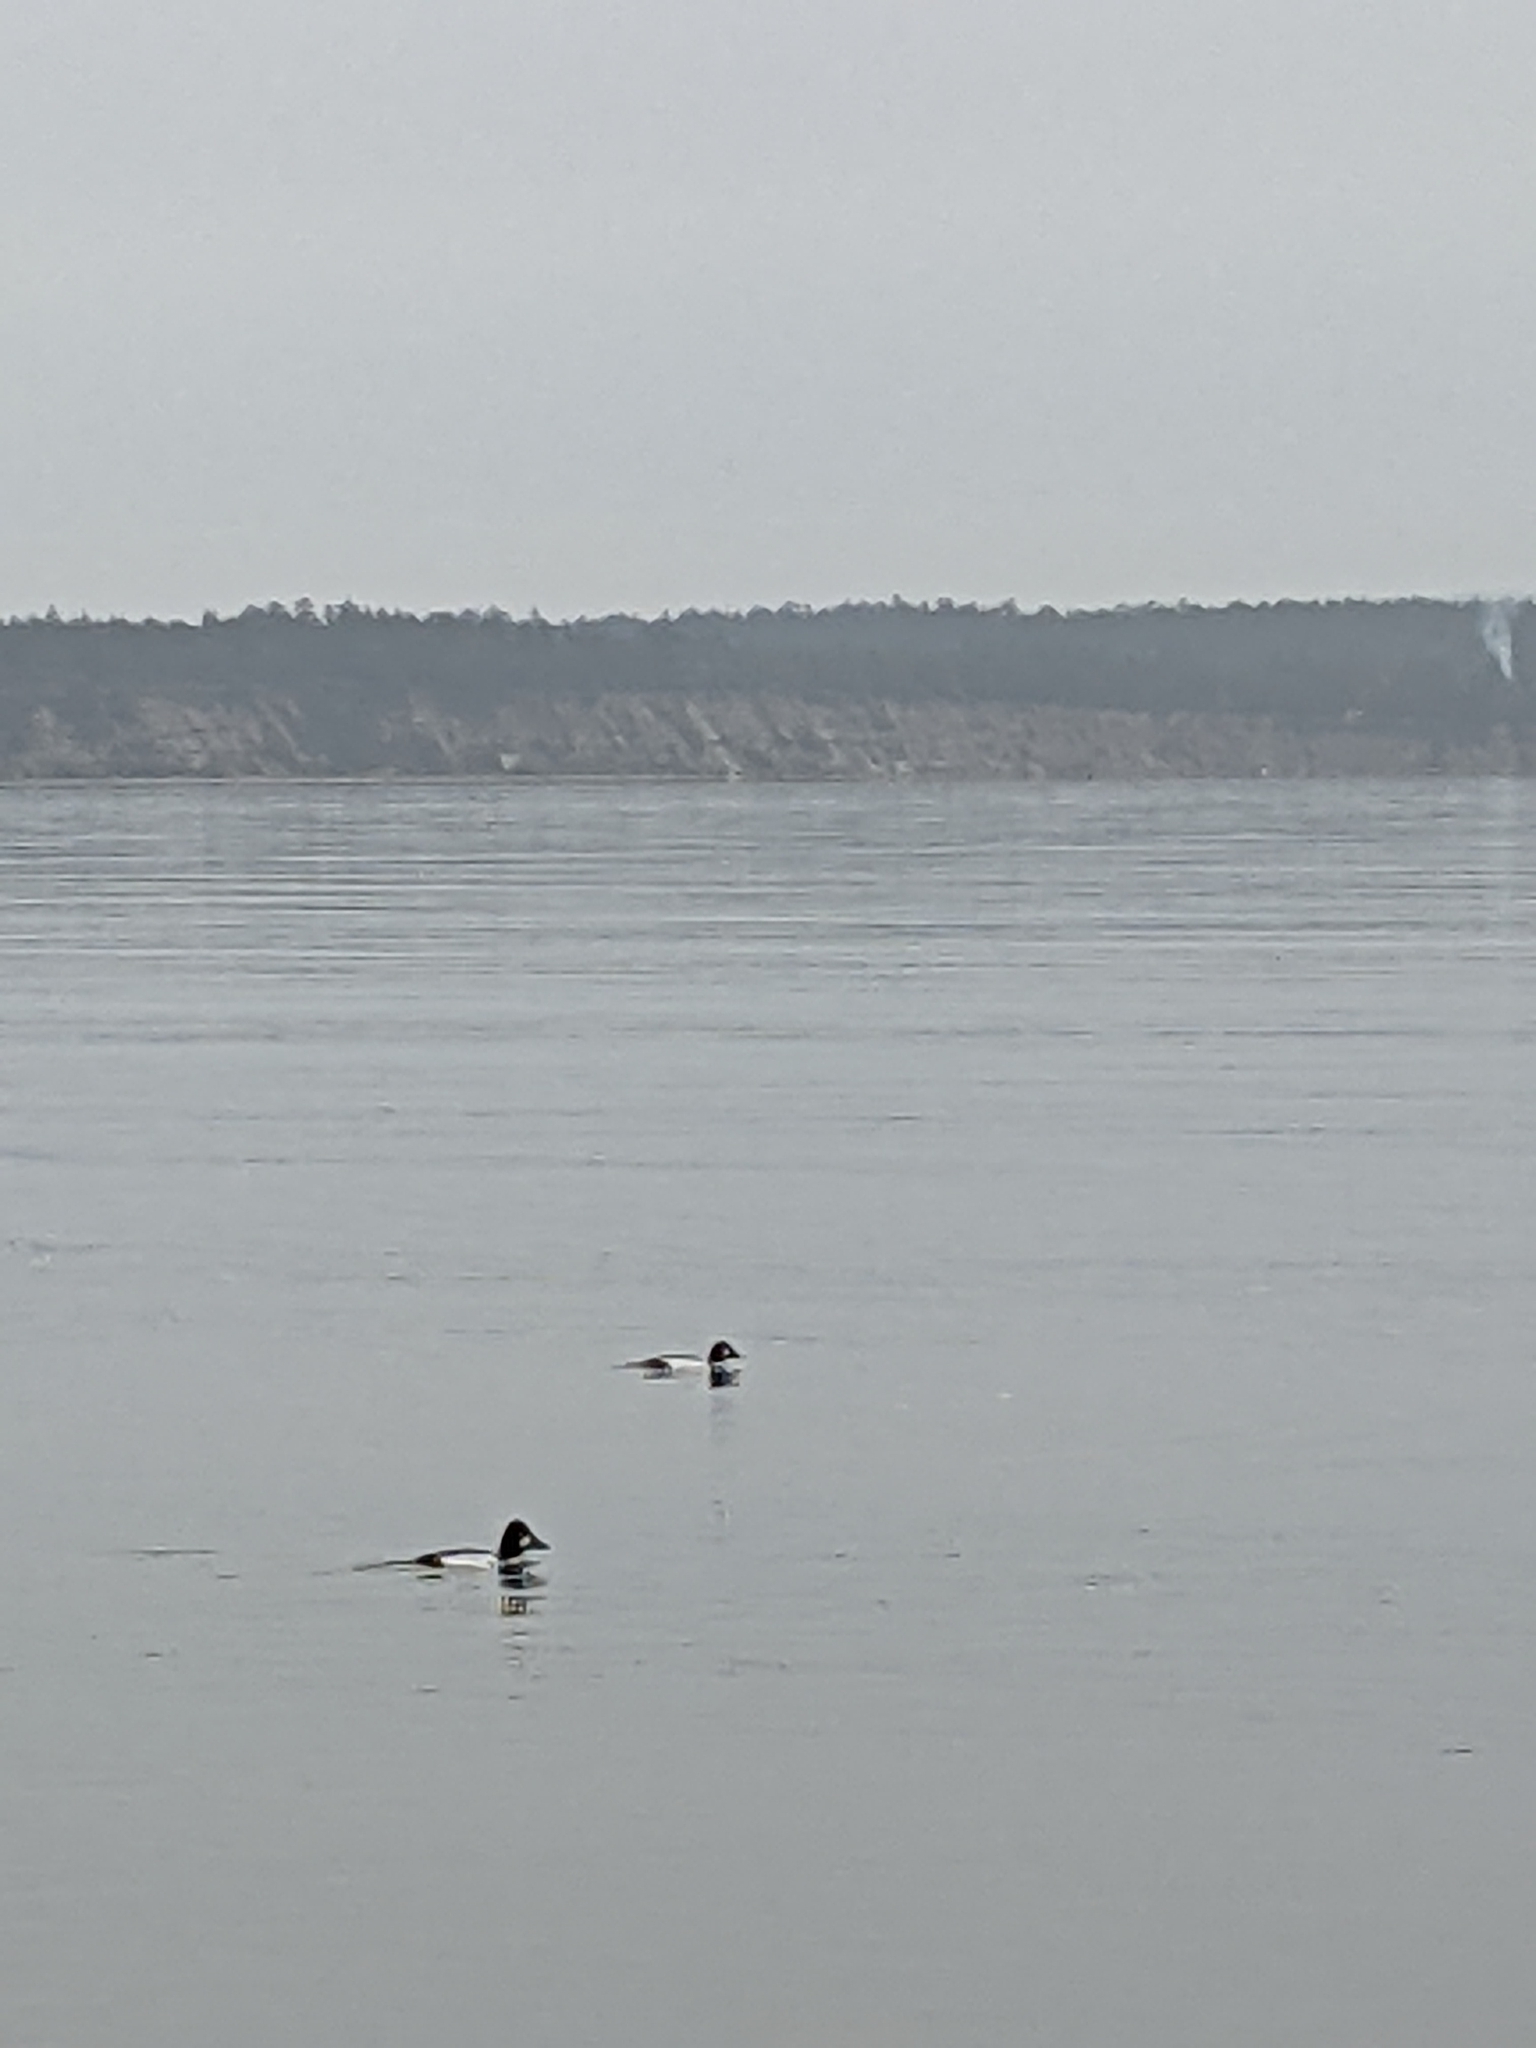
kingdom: Animalia
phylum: Chordata
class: Aves
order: Anseriformes
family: Anatidae
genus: Bucephala
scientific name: Bucephala clangula
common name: Common goldeneye
